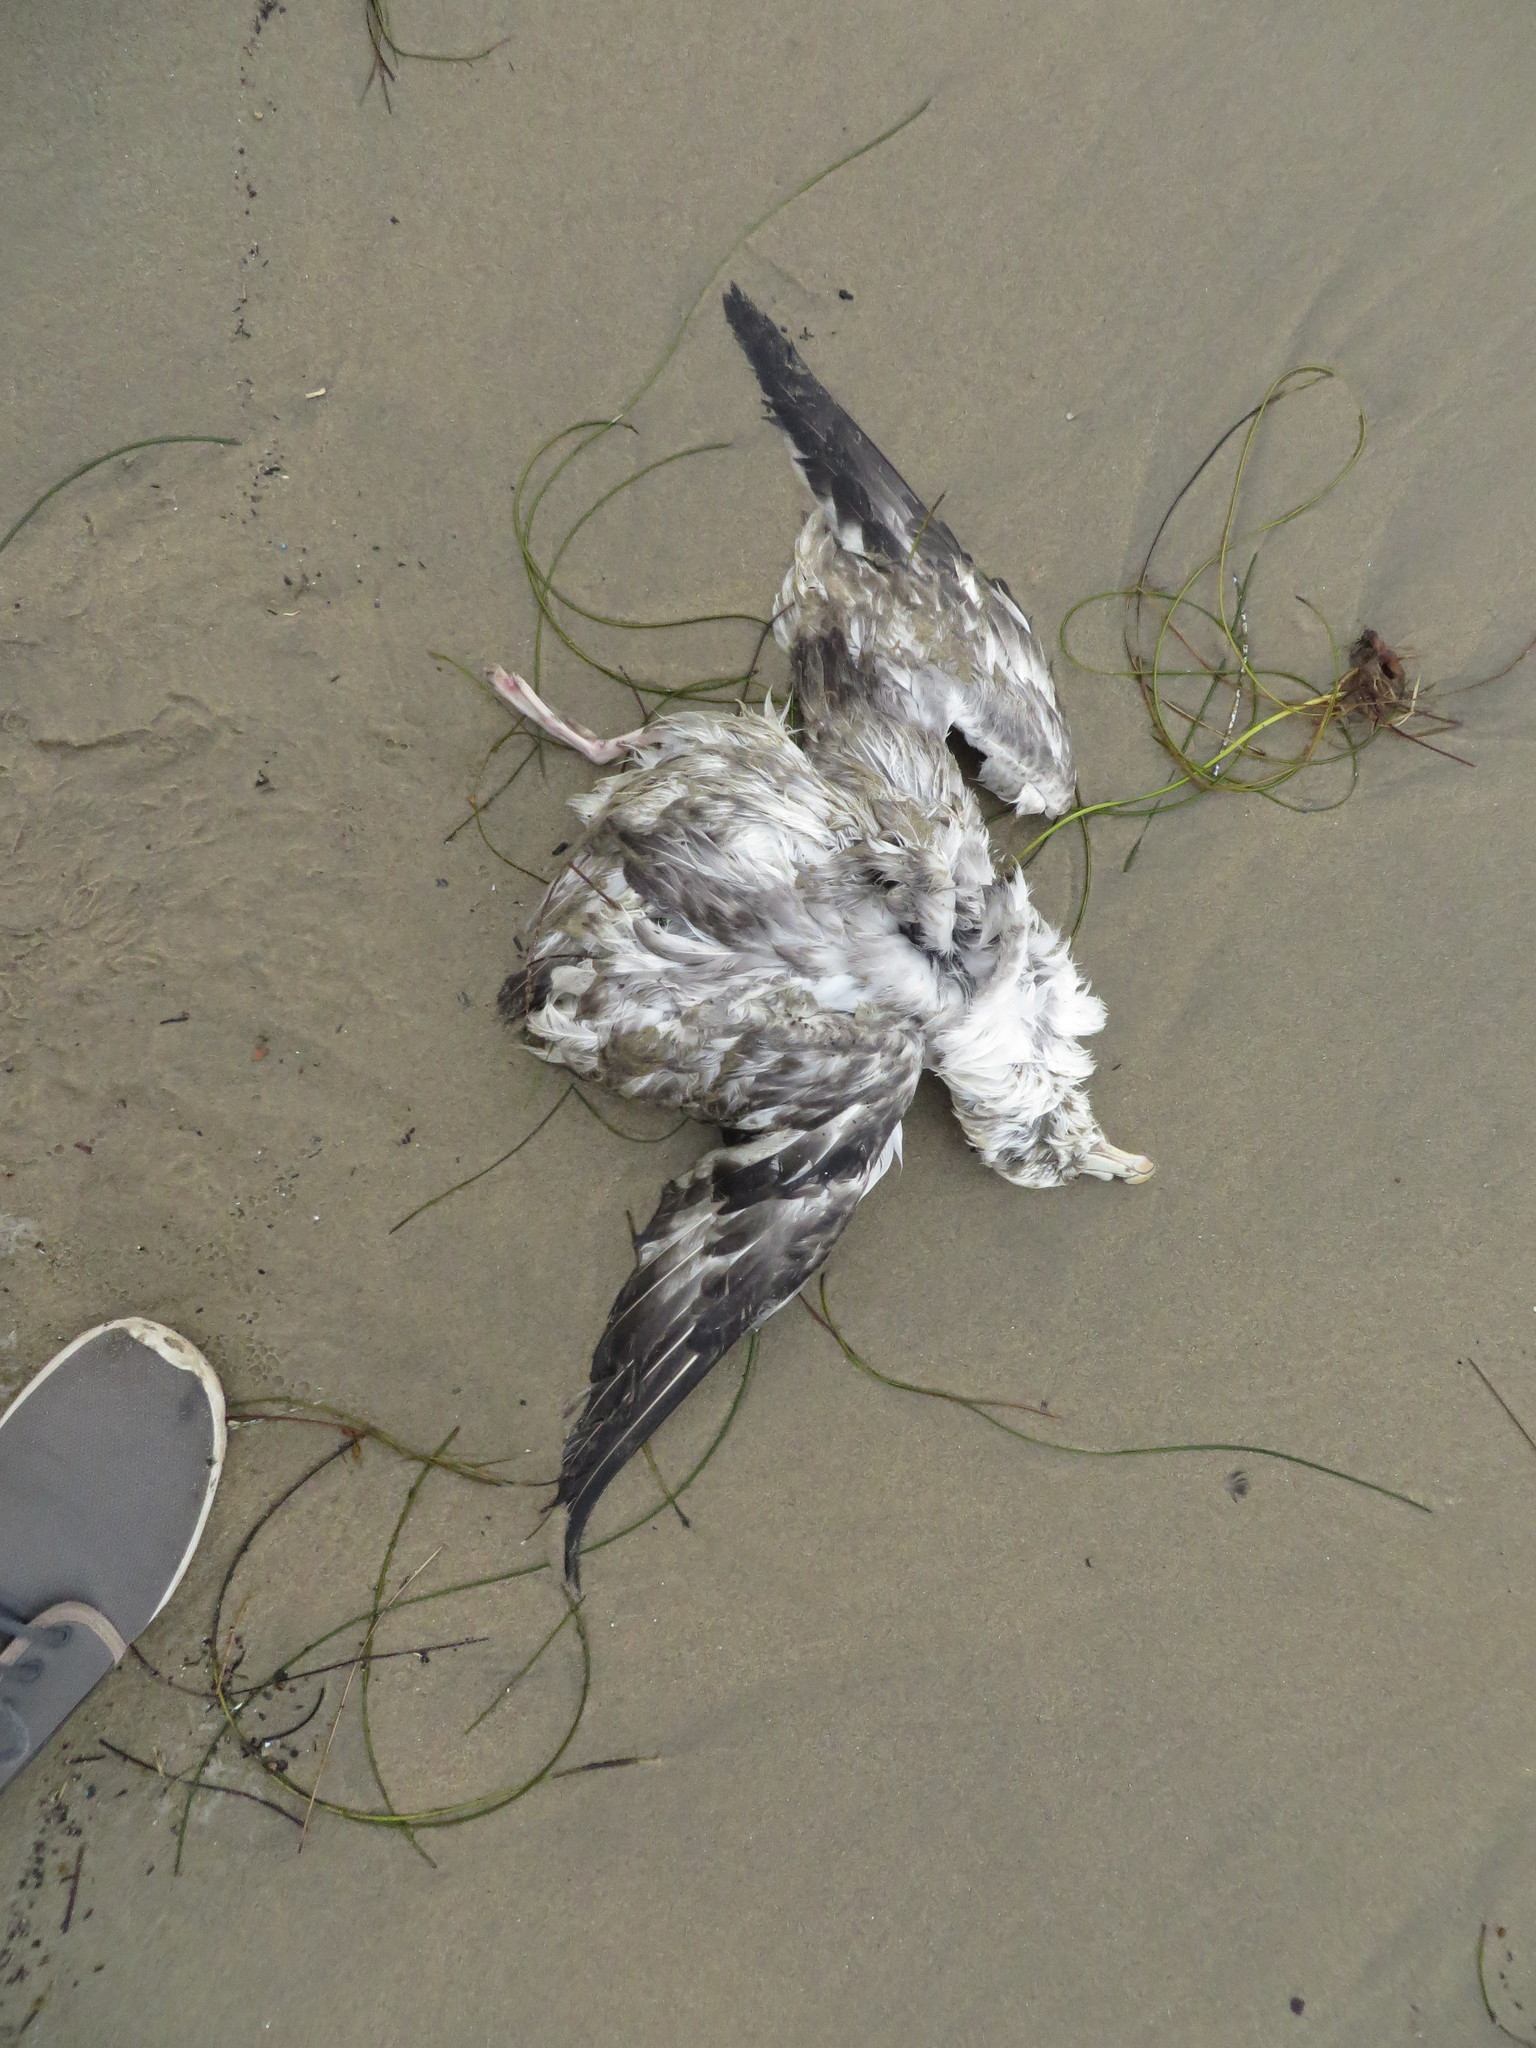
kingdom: Animalia
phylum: Chordata
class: Aves
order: Procellariiformes
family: Procellariidae
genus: Fulmarus
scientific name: Fulmarus glacialis
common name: Northern fulmar
